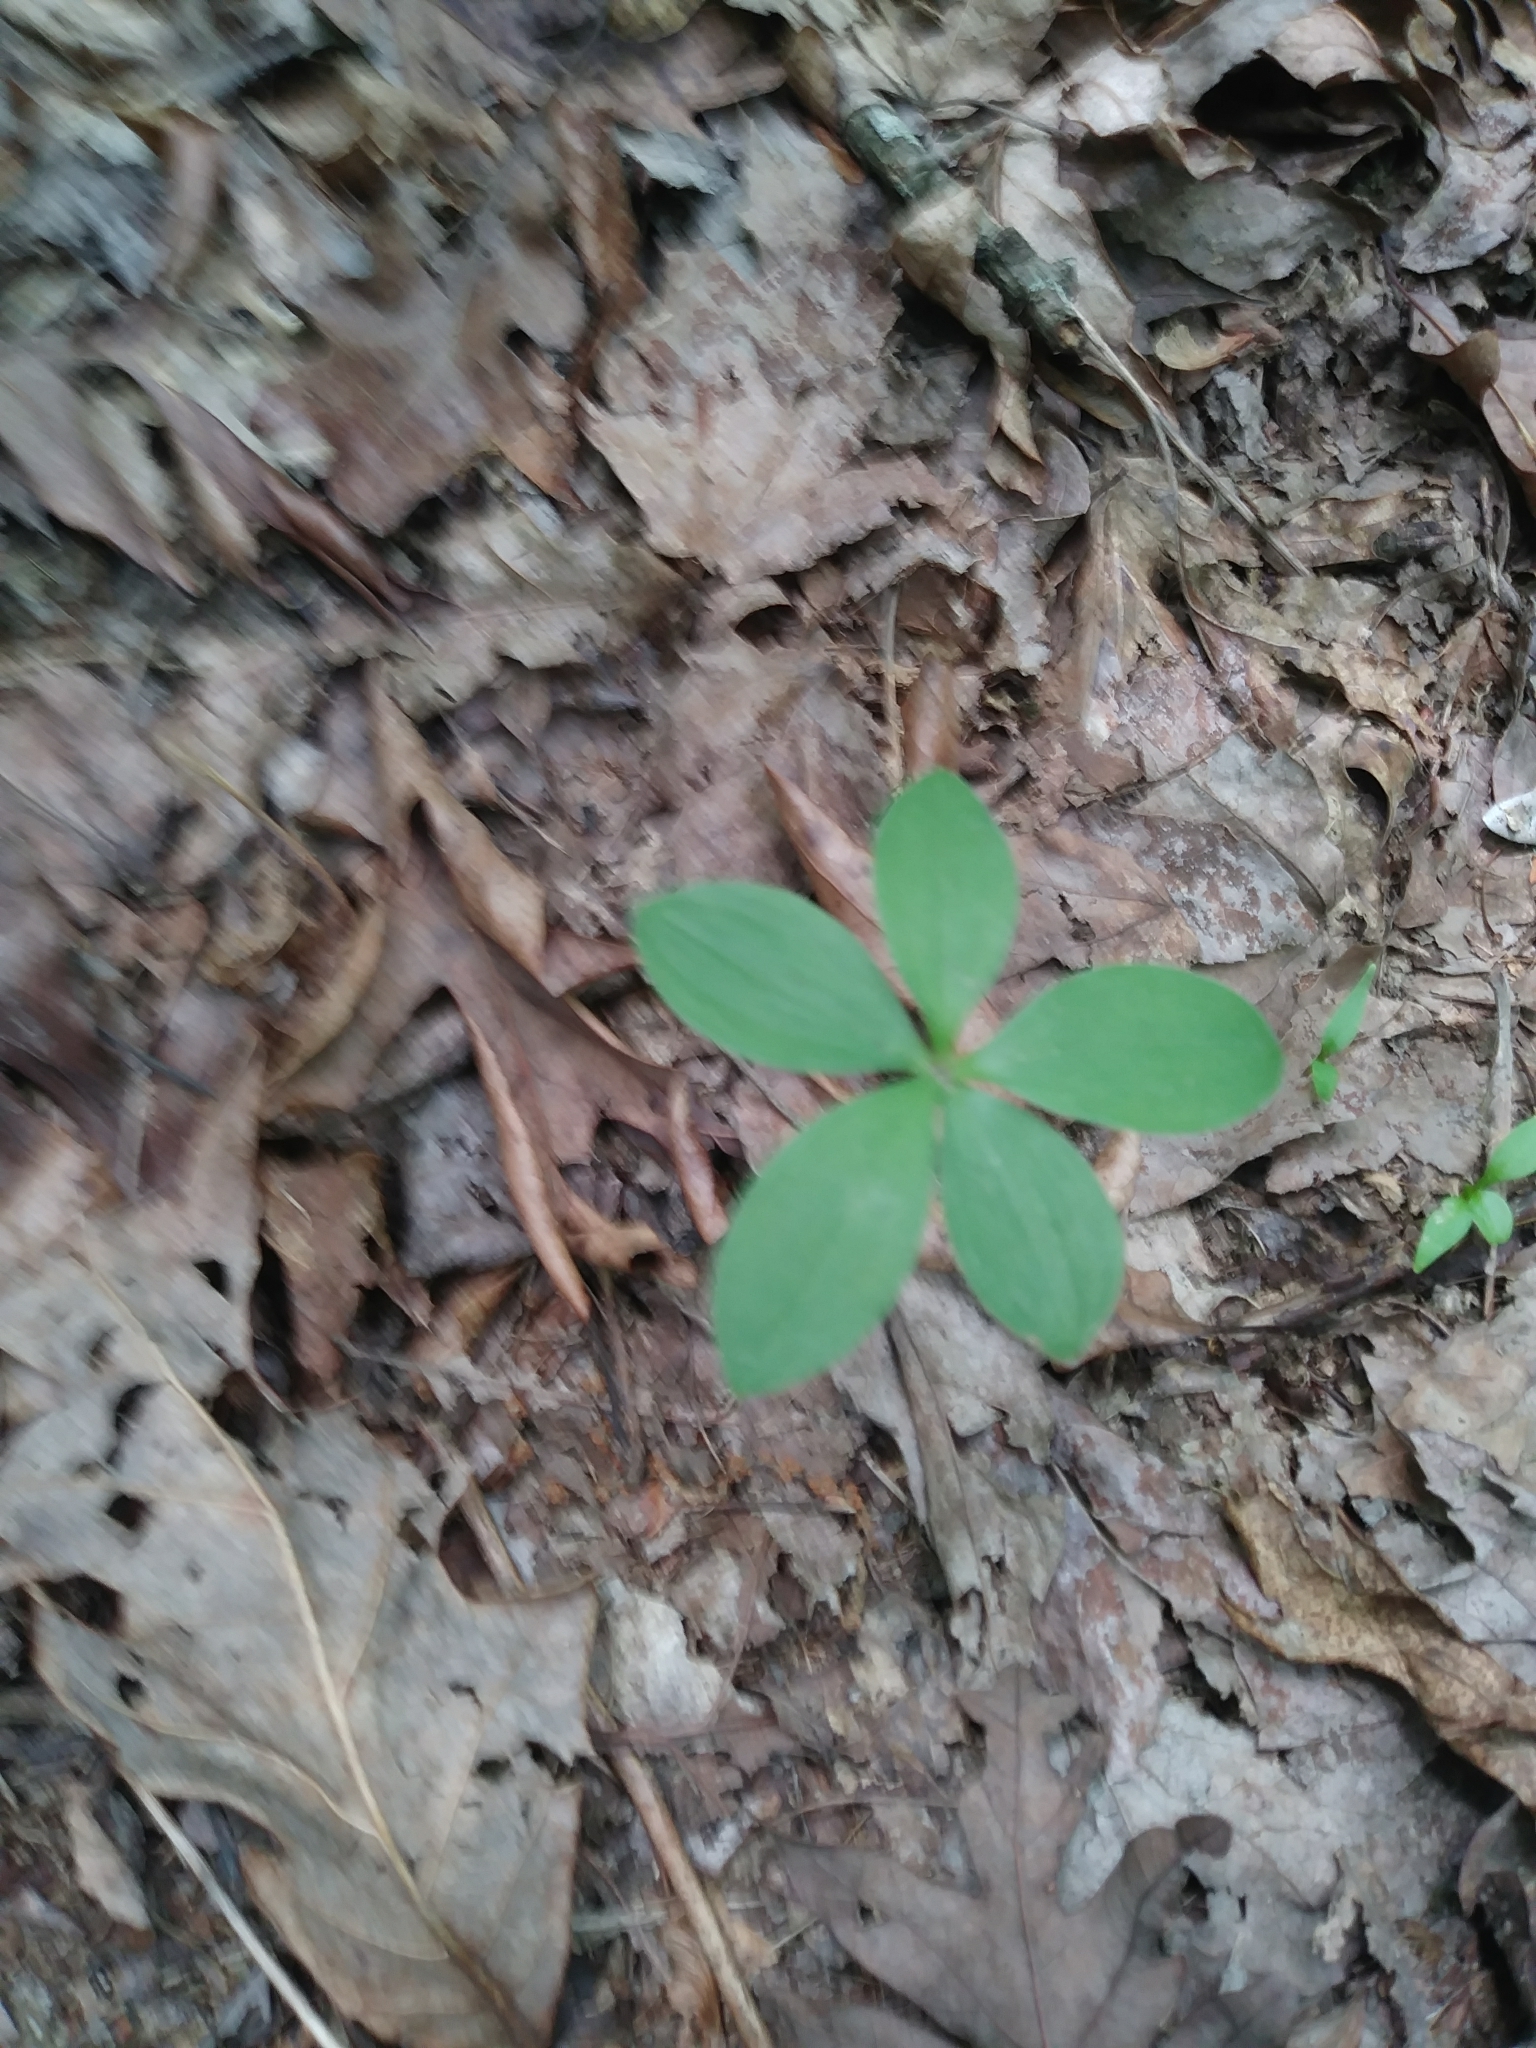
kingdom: Plantae
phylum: Tracheophyta
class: Liliopsida
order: Asparagales
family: Orchidaceae
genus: Isotria
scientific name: Isotria verticillata
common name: Large whorled pogonia
